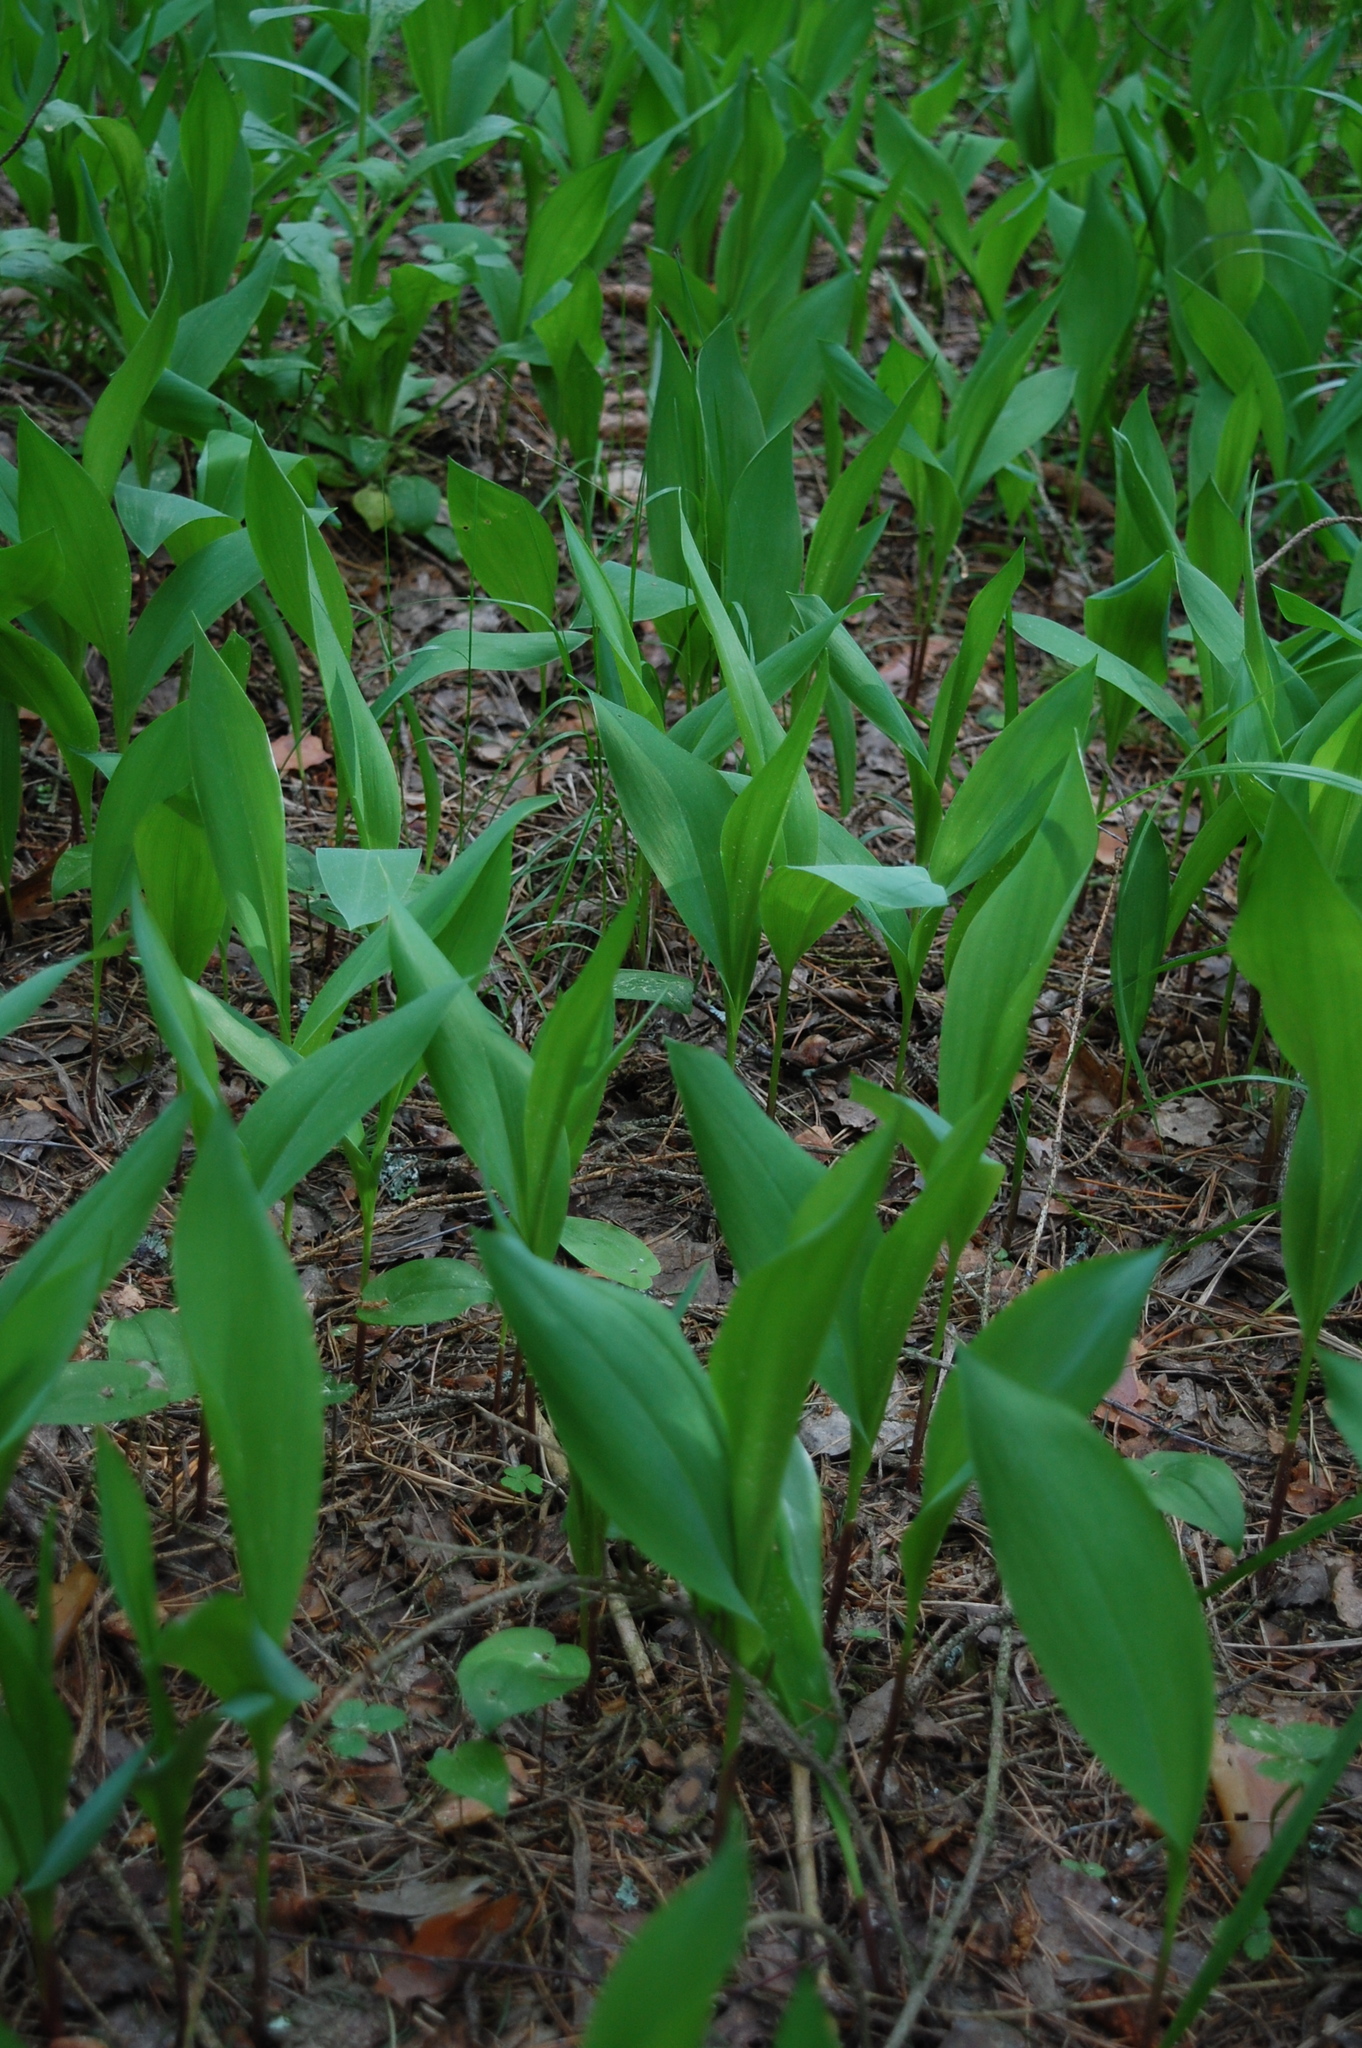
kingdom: Plantae
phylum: Tracheophyta
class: Liliopsida
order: Asparagales
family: Asparagaceae
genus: Convallaria
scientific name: Convallaria majalis
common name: Lily-of-the-valley
